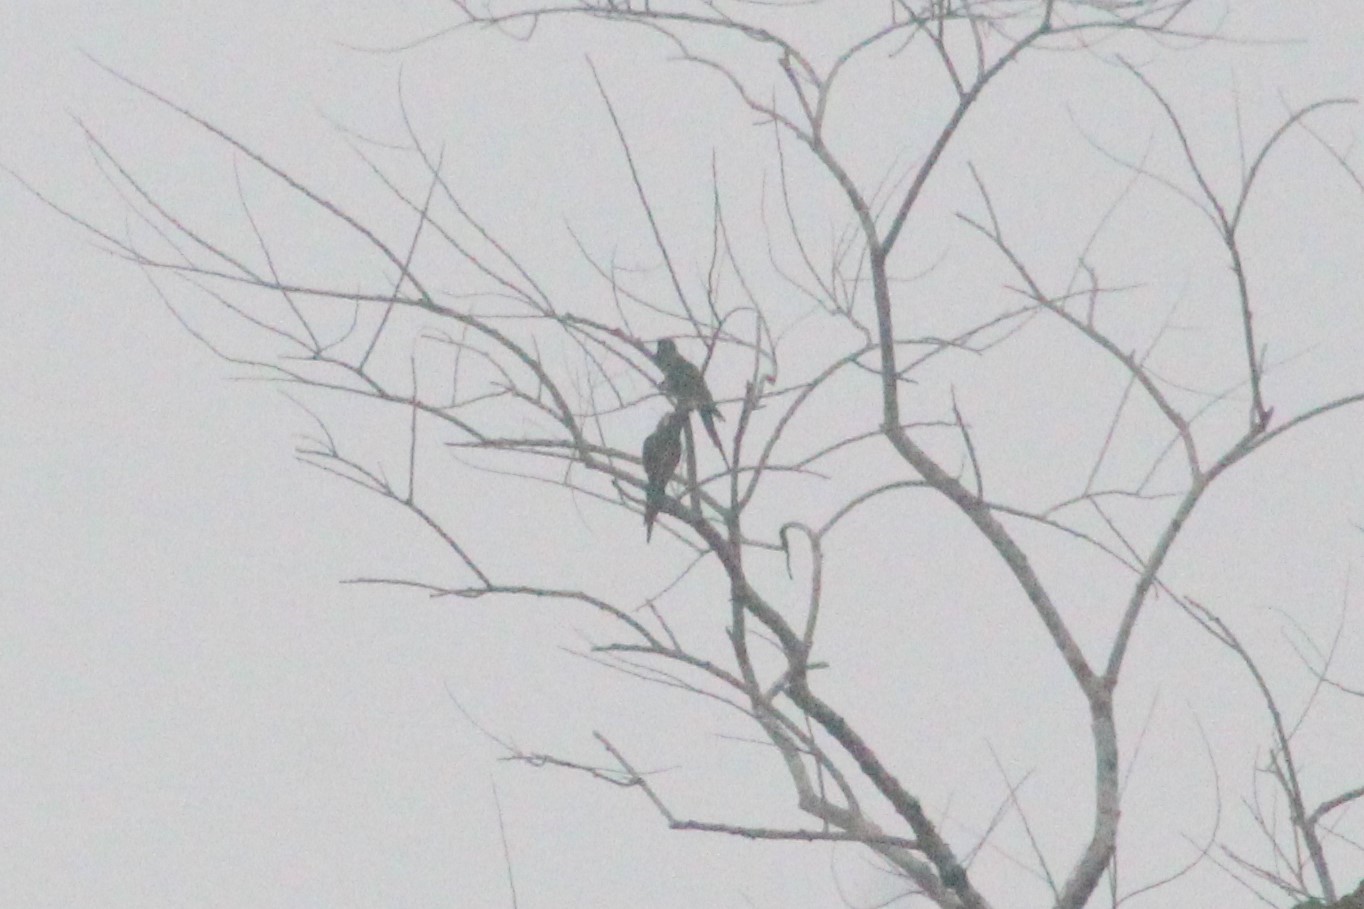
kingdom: Animalia
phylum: Chordata
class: Aves
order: Psittaciformes
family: Psittacidae
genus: Ara
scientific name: Ara severus
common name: Chestnut-fronted macaw
